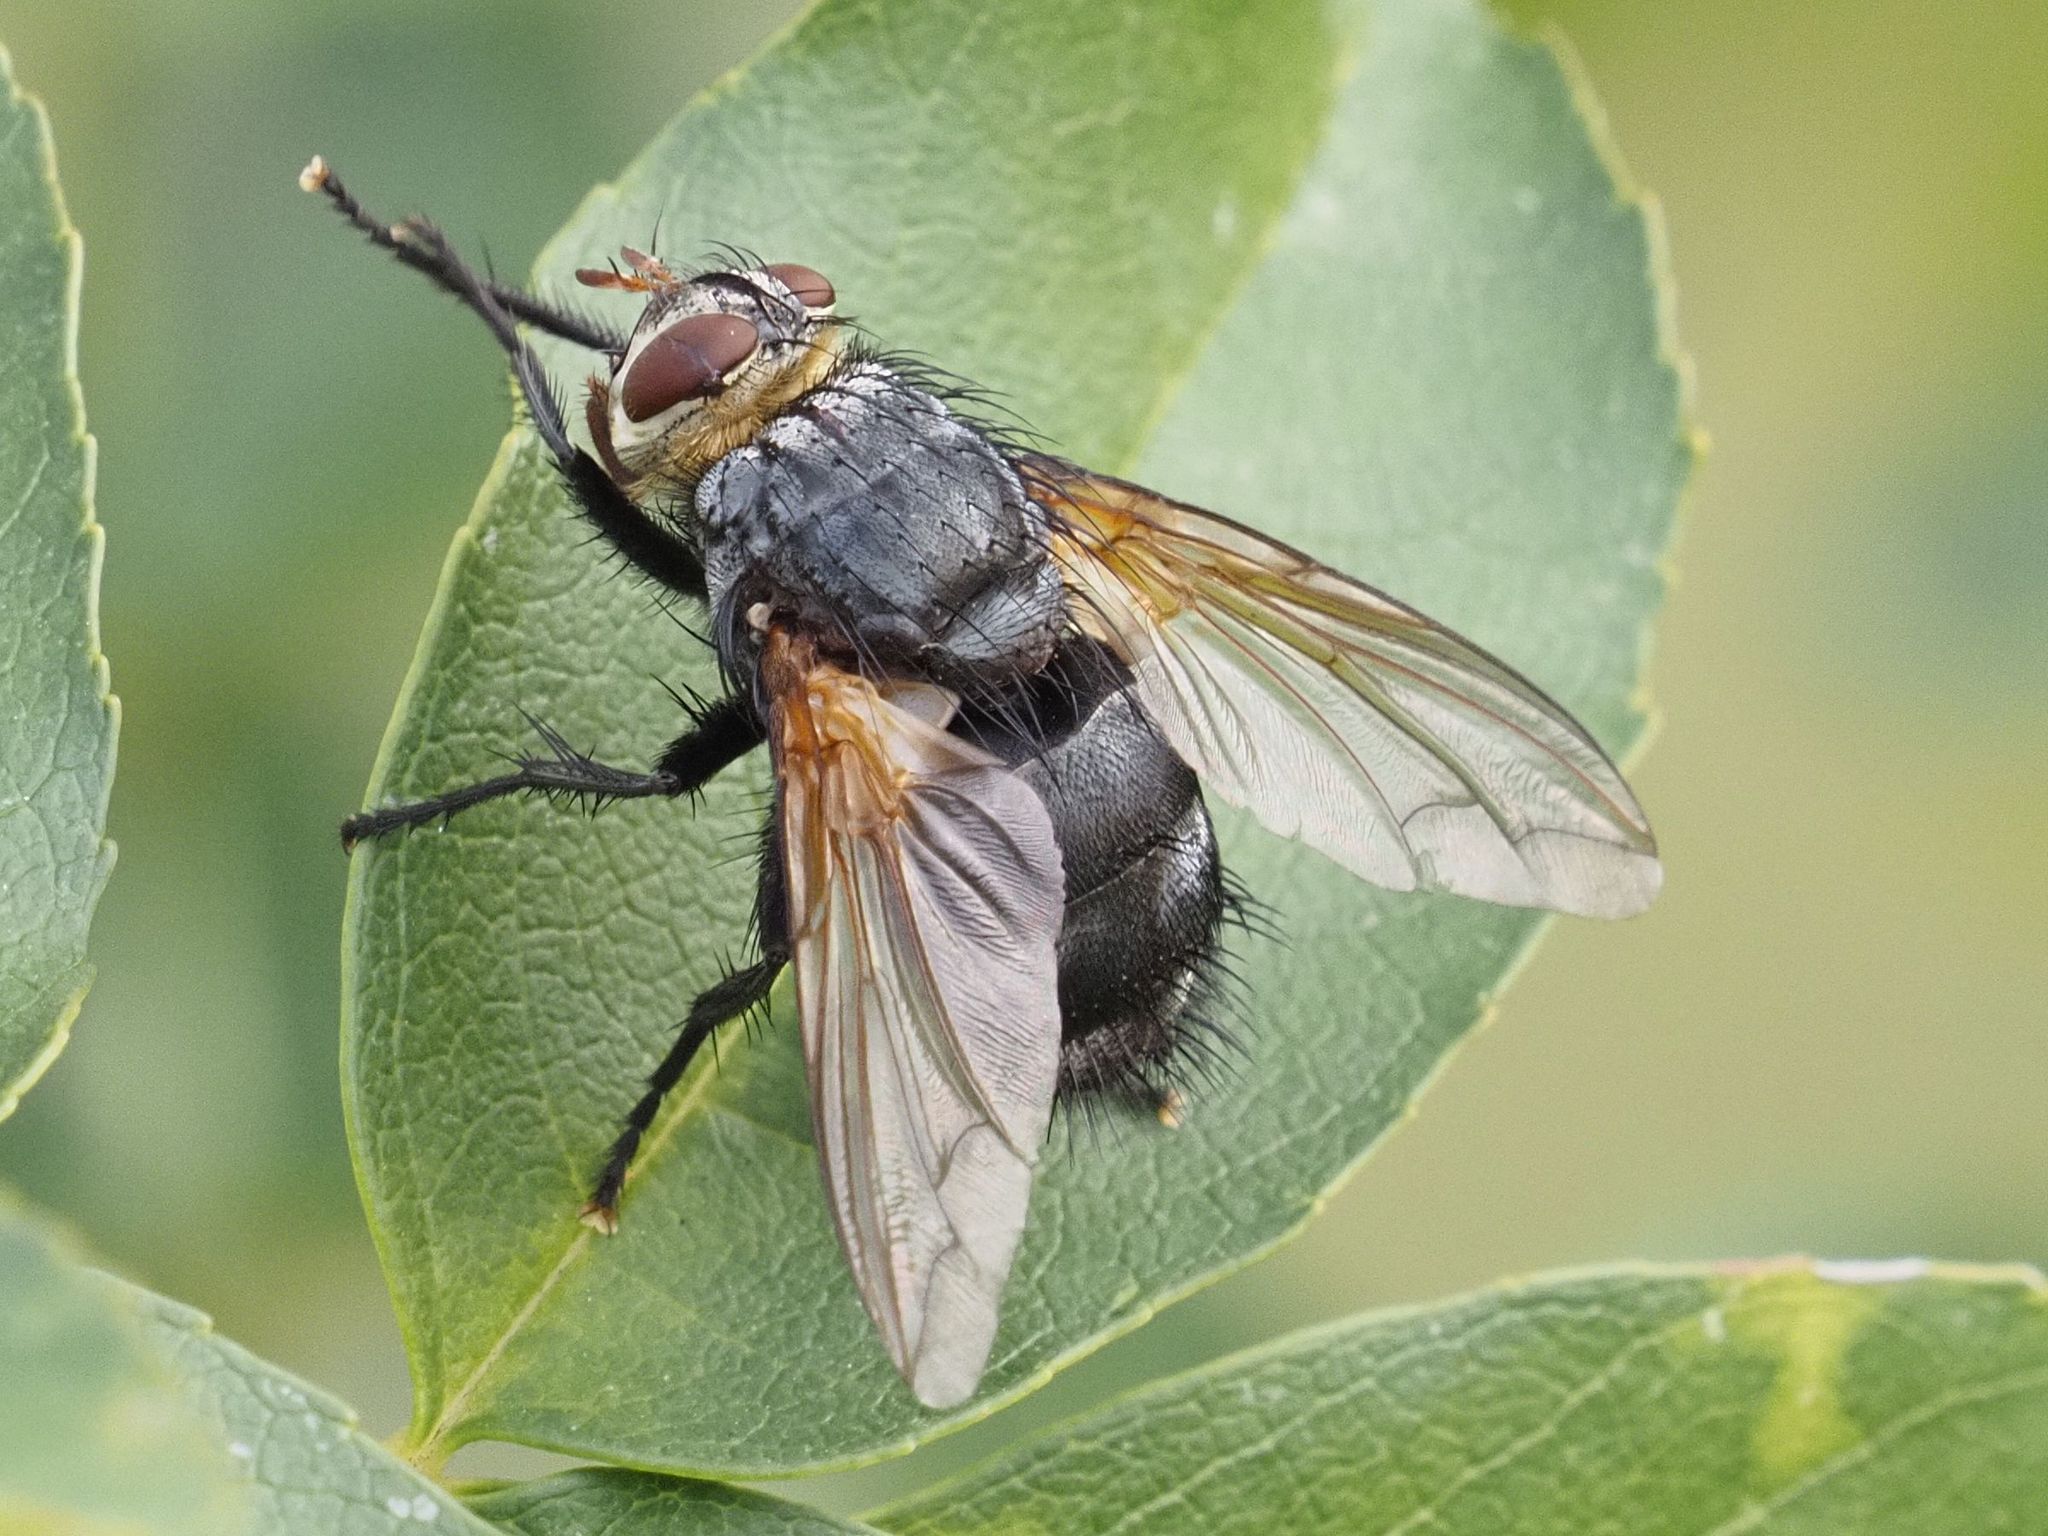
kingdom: Animalia
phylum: Arthropoda
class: Insecta
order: Diptera
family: Tachinidae
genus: Nemoraea
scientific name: Nemoraea pellucida
